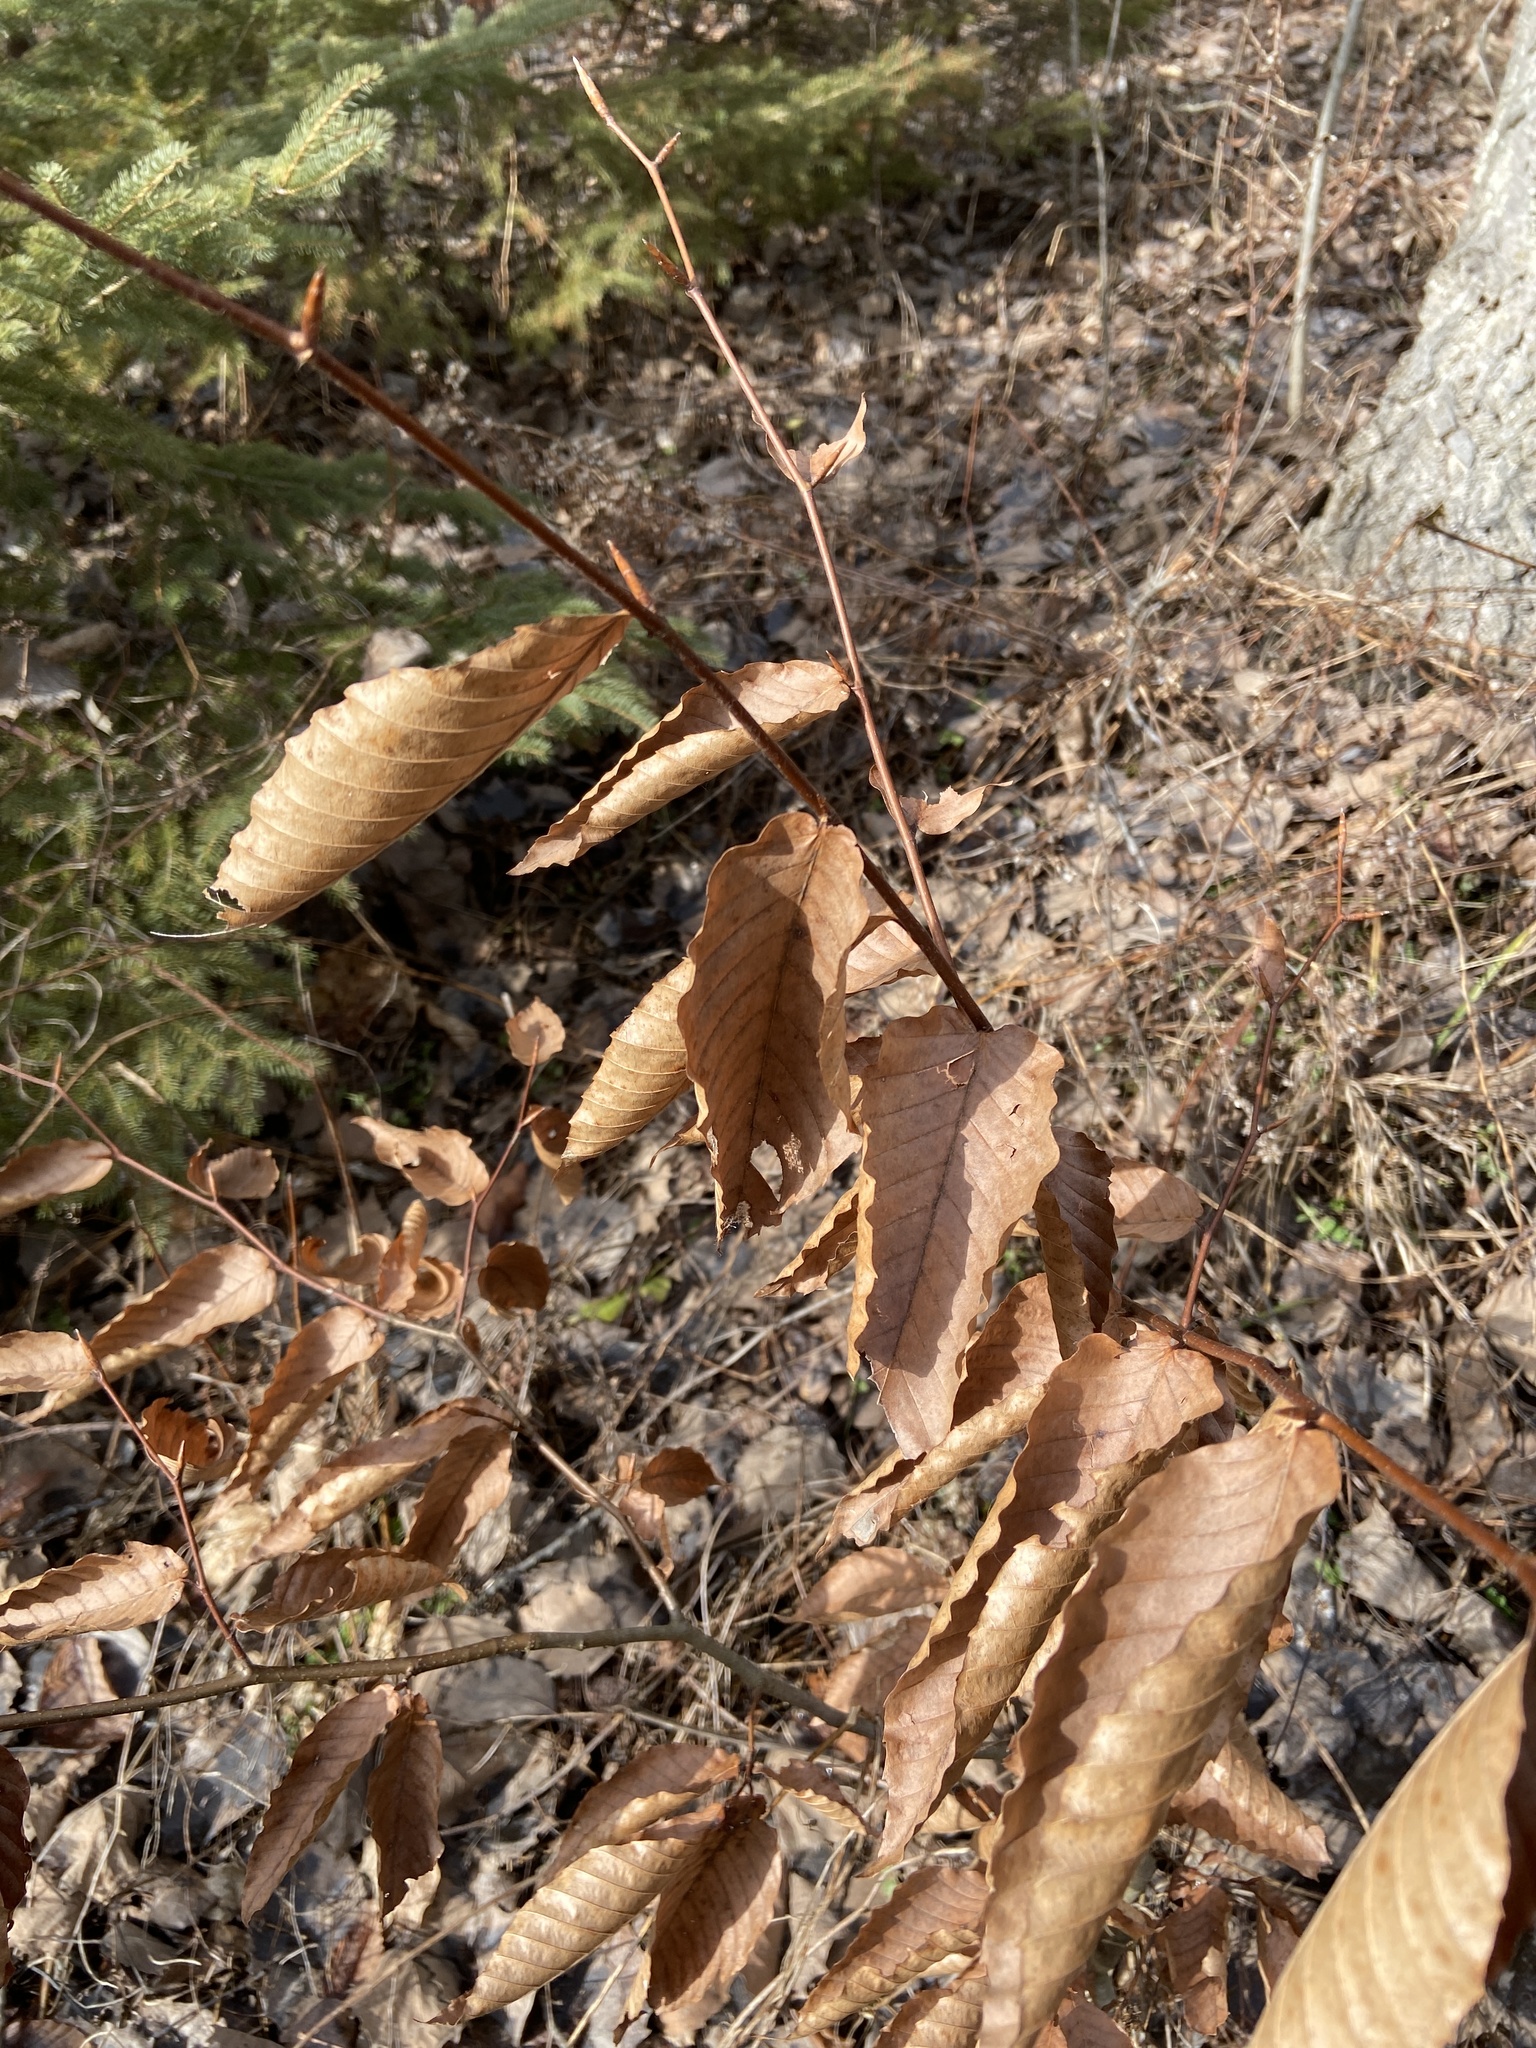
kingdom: Plantae
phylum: Tracheophyta
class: Magnoliopsida
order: Fagales
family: Fagaceae
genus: Fagus
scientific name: Fagus grandifolia
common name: American beech
